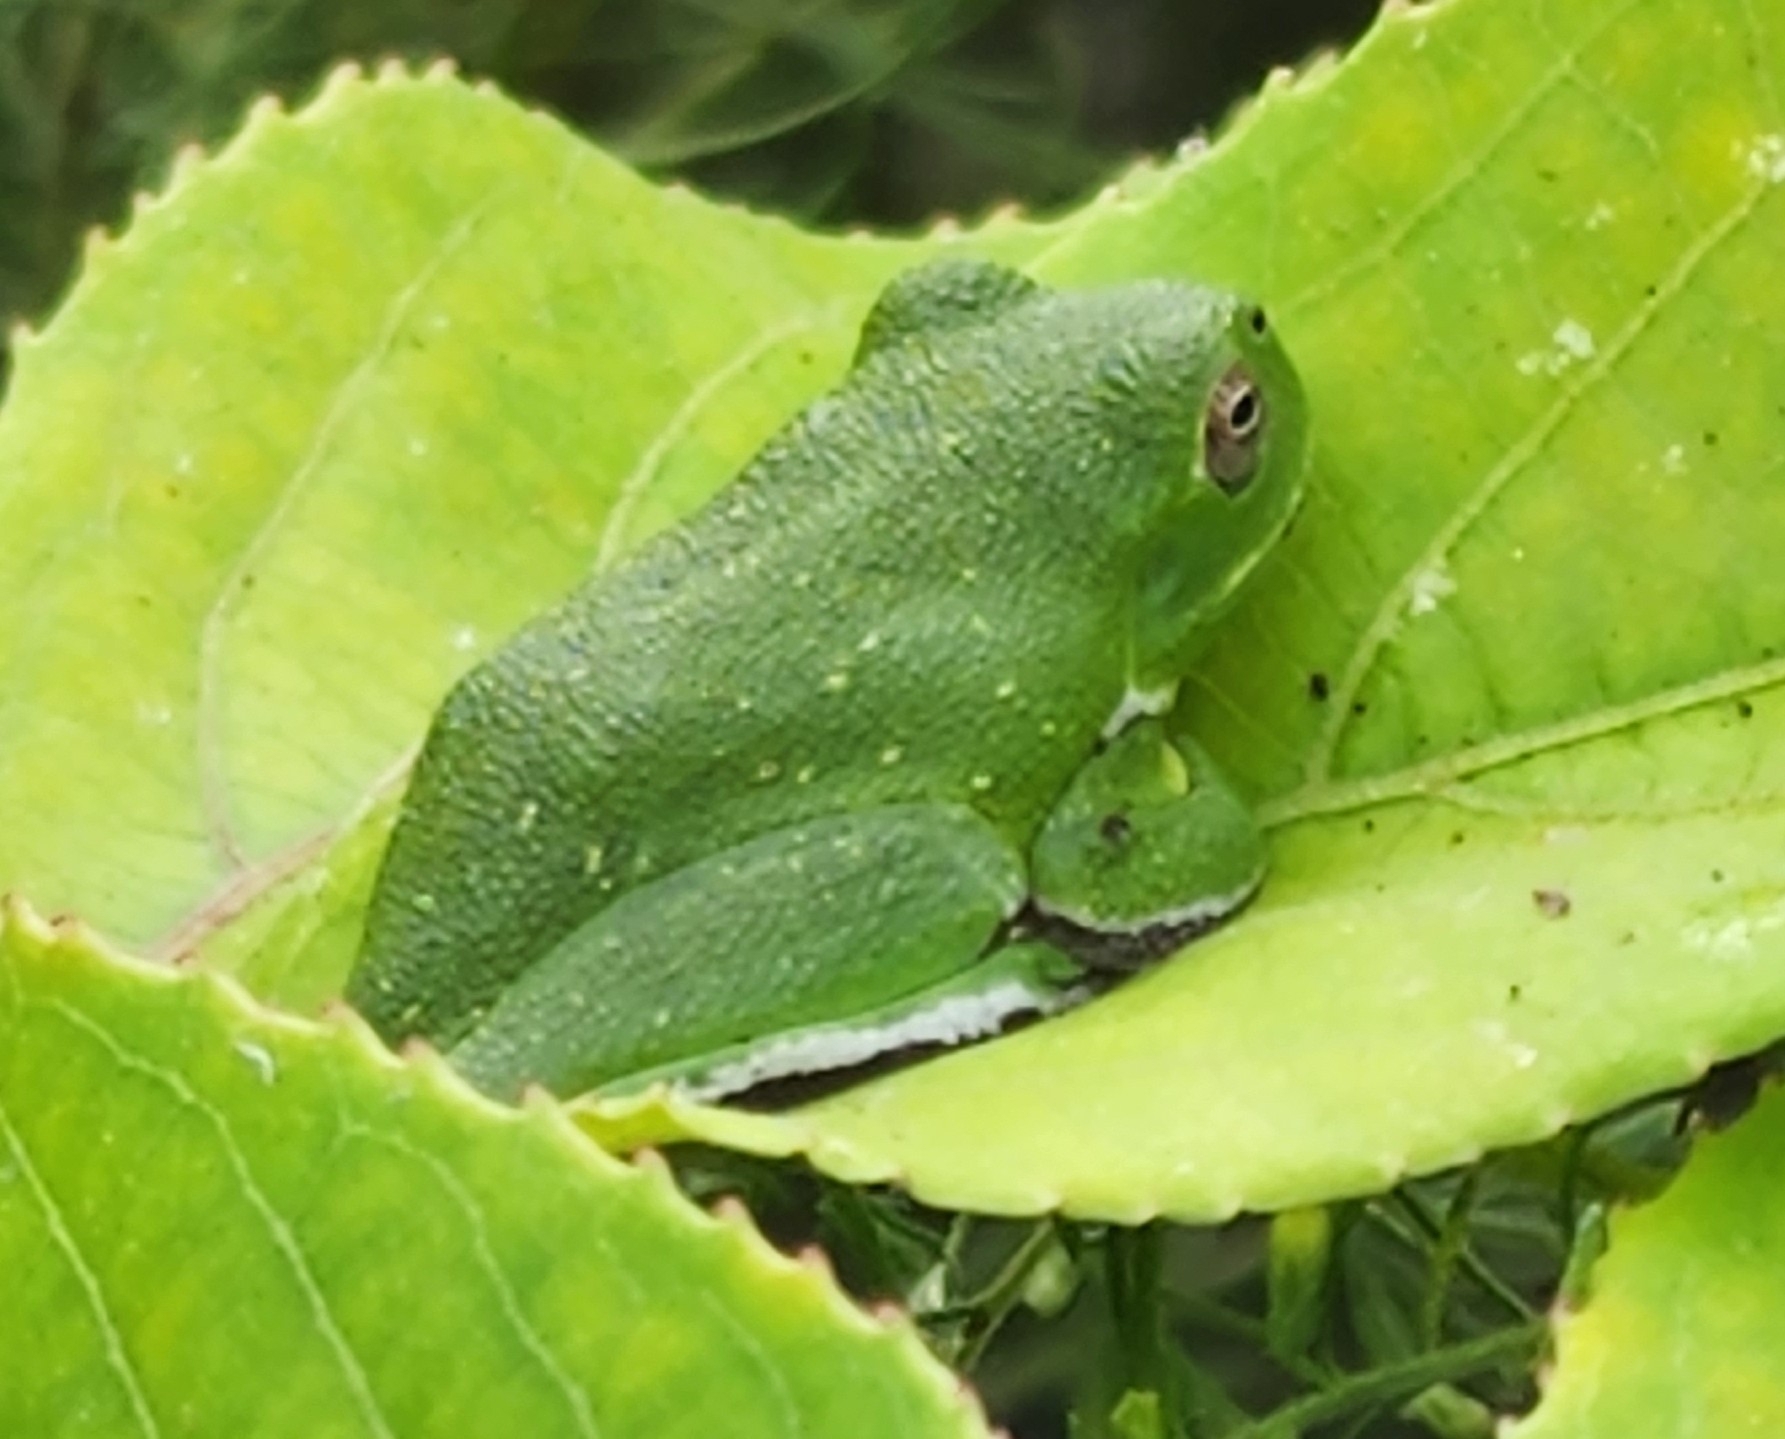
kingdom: Animalia
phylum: Chordata
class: Amphibia
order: Anura
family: Hylidae
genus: Dryophytes
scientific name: Dryophytes gratiosus
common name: Barking treefrog
